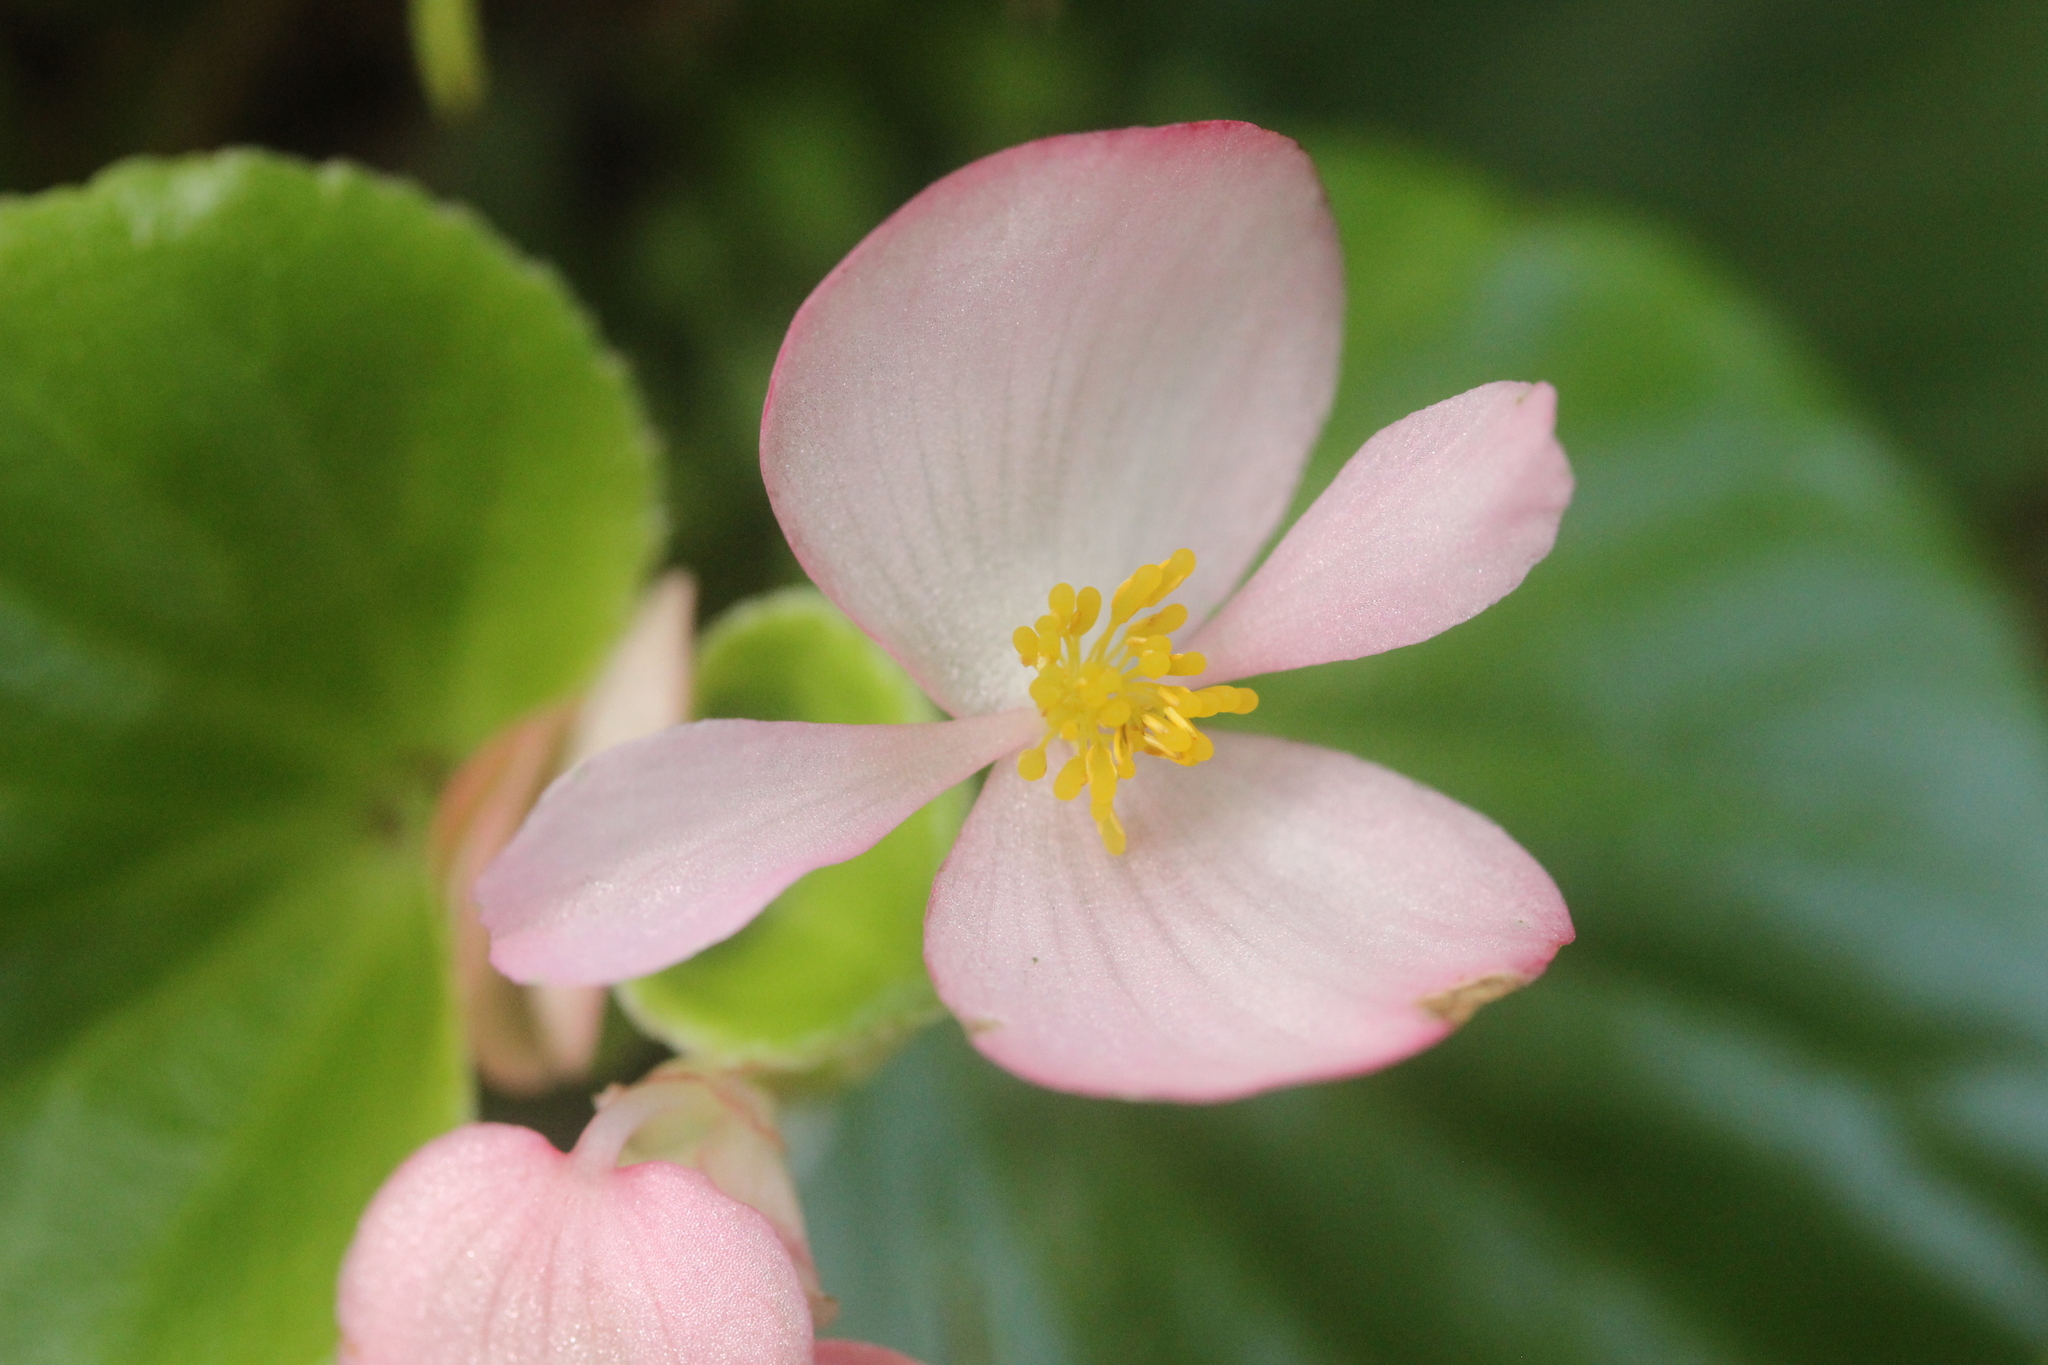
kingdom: Plantae
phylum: Tracheophyta
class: Magnoliopsida
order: Cucurbitales
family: Begoniaceae
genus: Begonia
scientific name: Begonia semperflorens-cultorum
